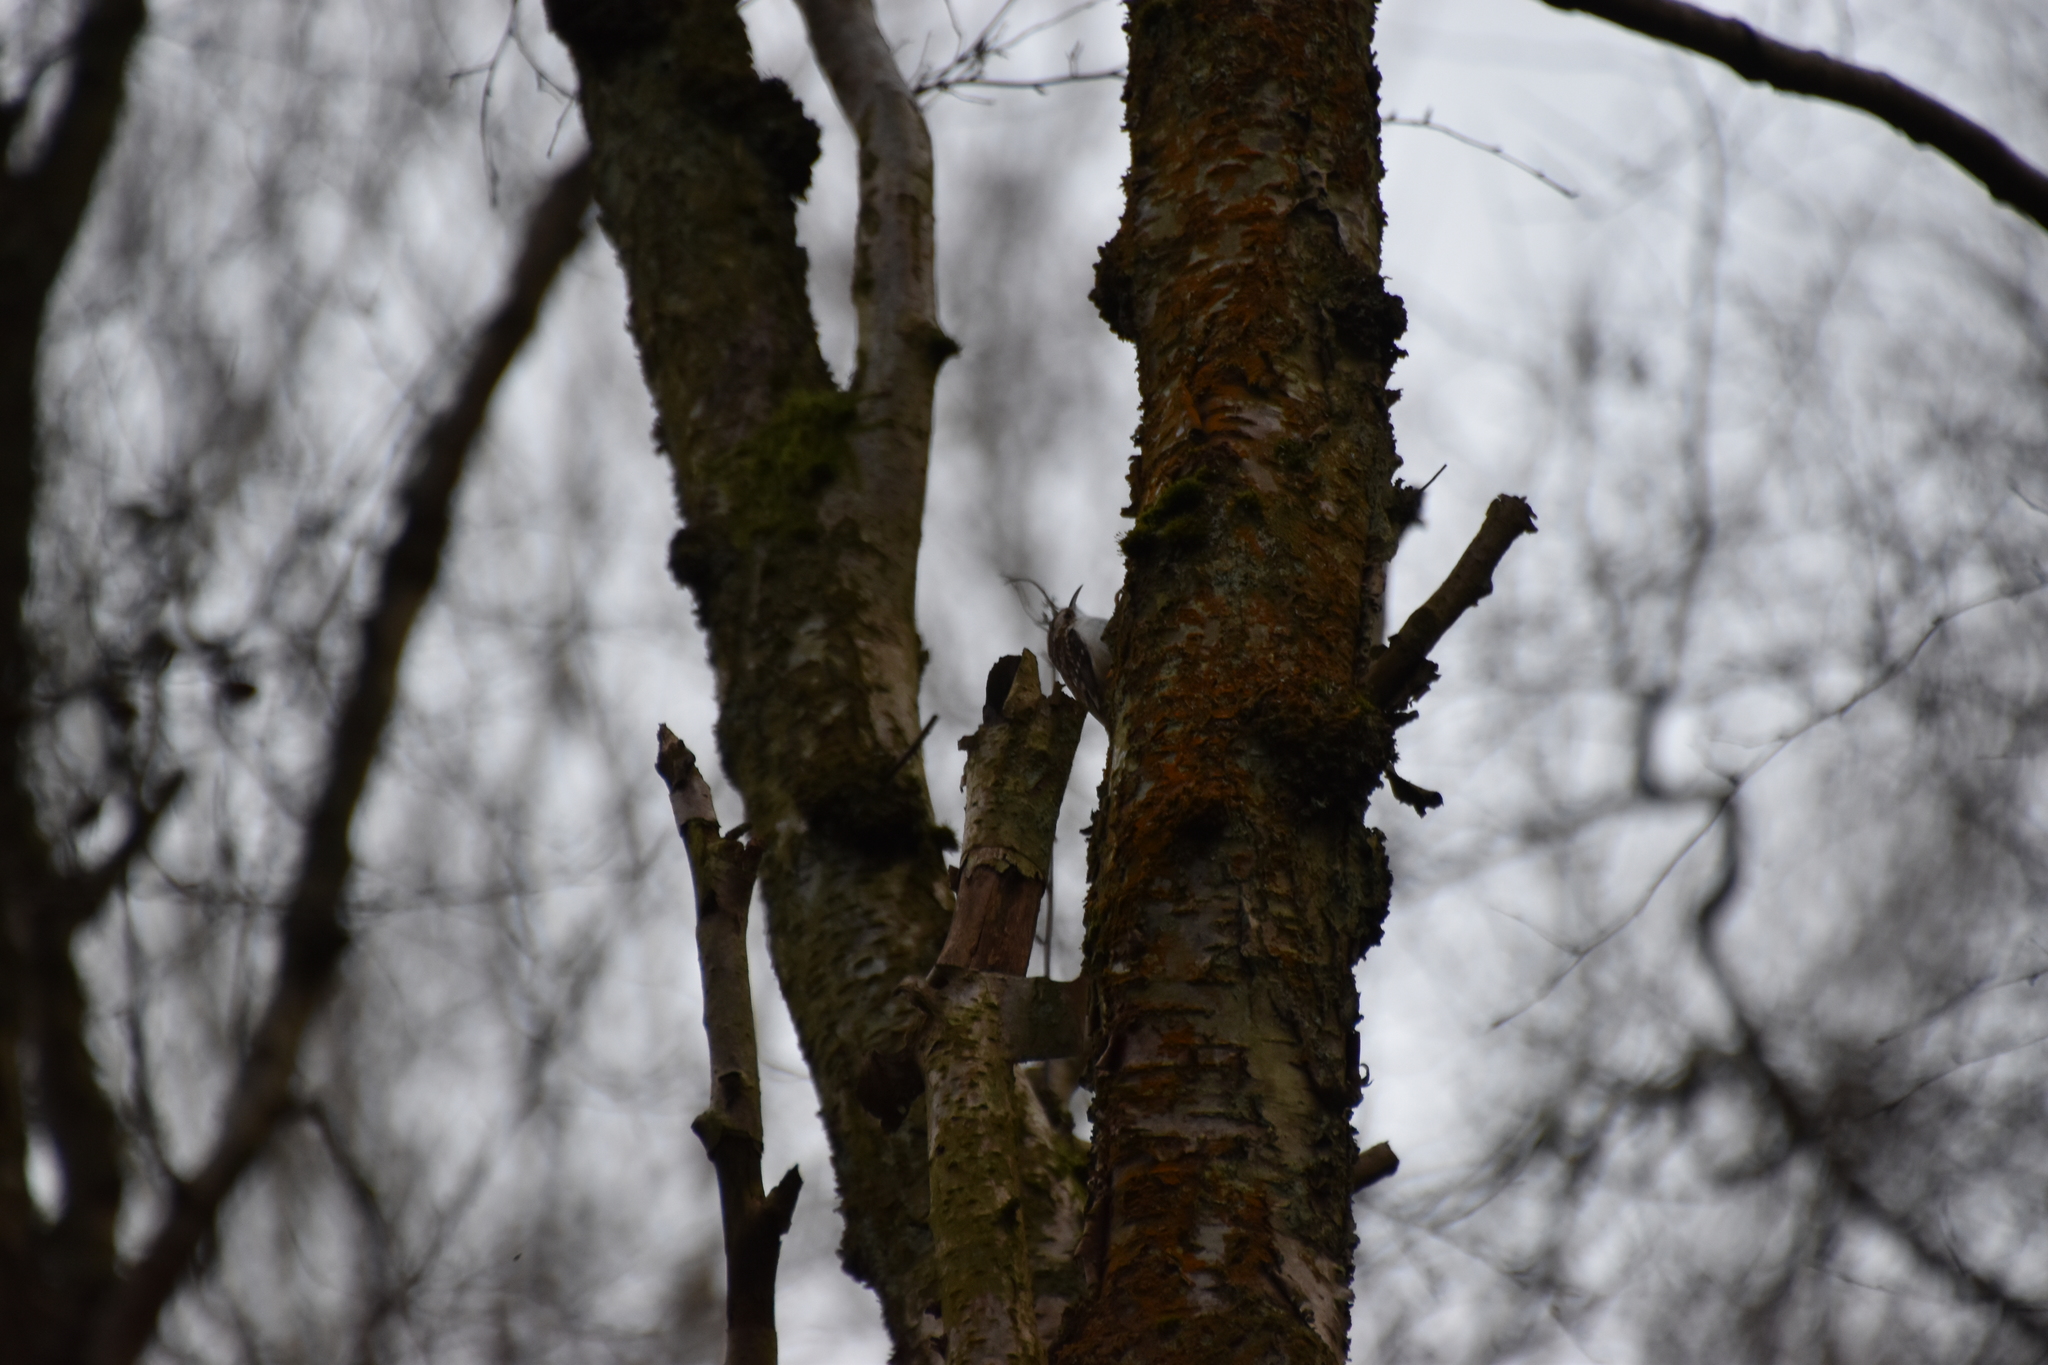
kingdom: Animalia
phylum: Chordata
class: Aves
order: Passeriformes
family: Certhiidae
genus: Certhia
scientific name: Certhia familiaris
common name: Eurasian treecreeper
